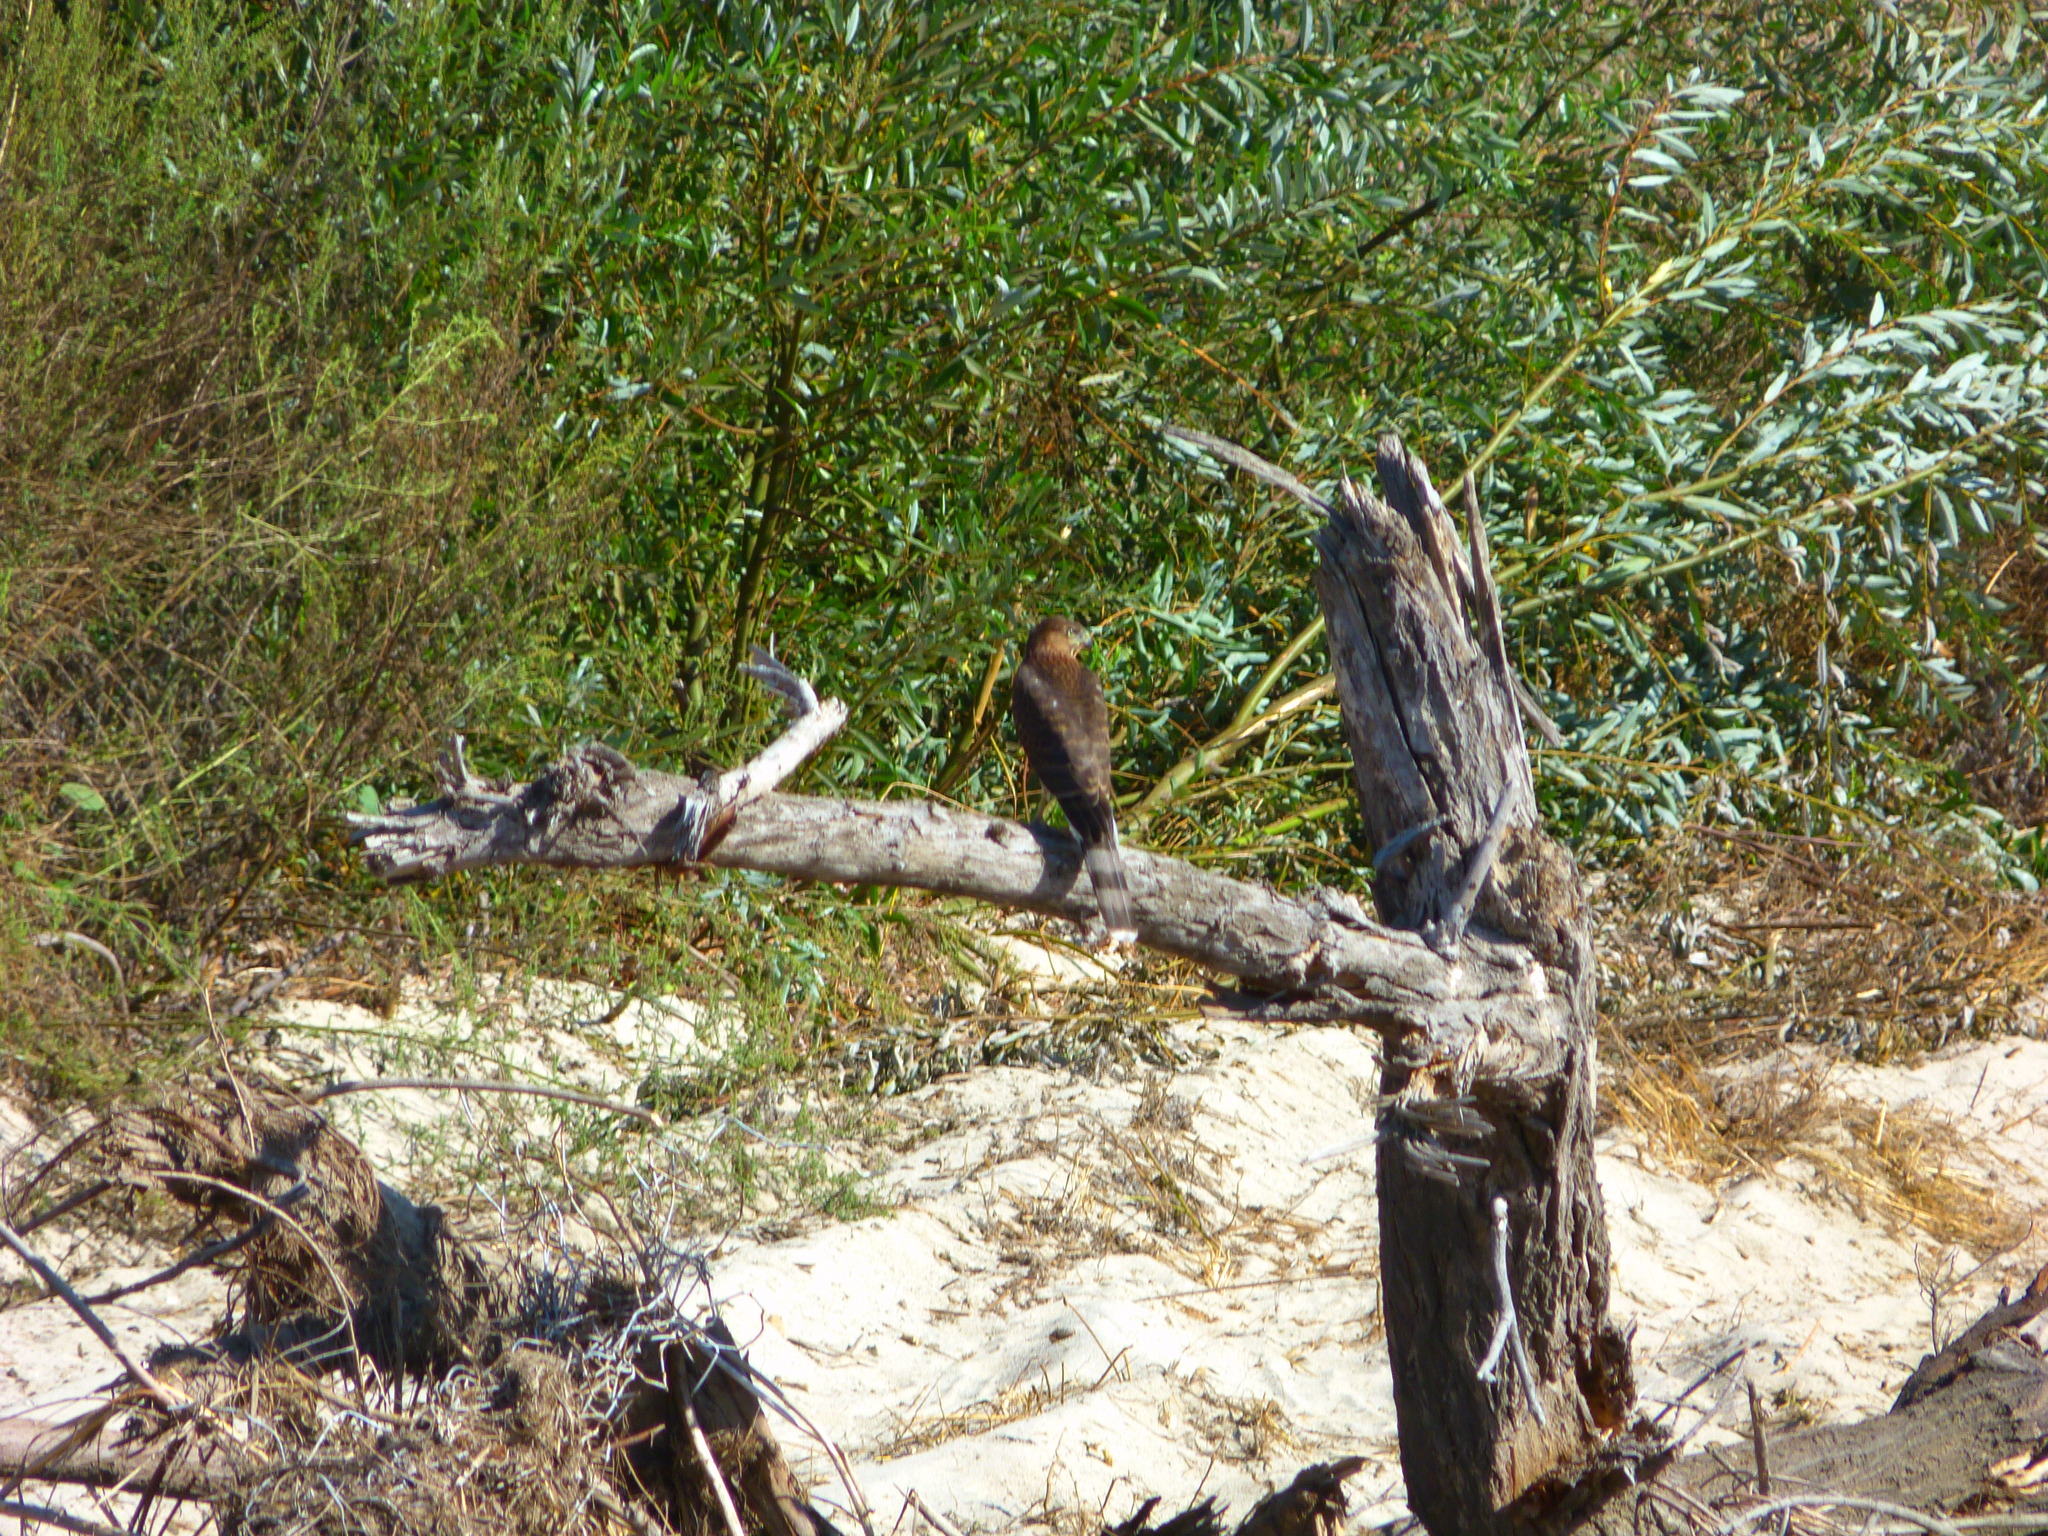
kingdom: Animalia
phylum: Chordata
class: Aves
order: Accipitriformes
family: Accipitridae
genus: Accipiter
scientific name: Accipiter cooperii
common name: Cooper's hawk
